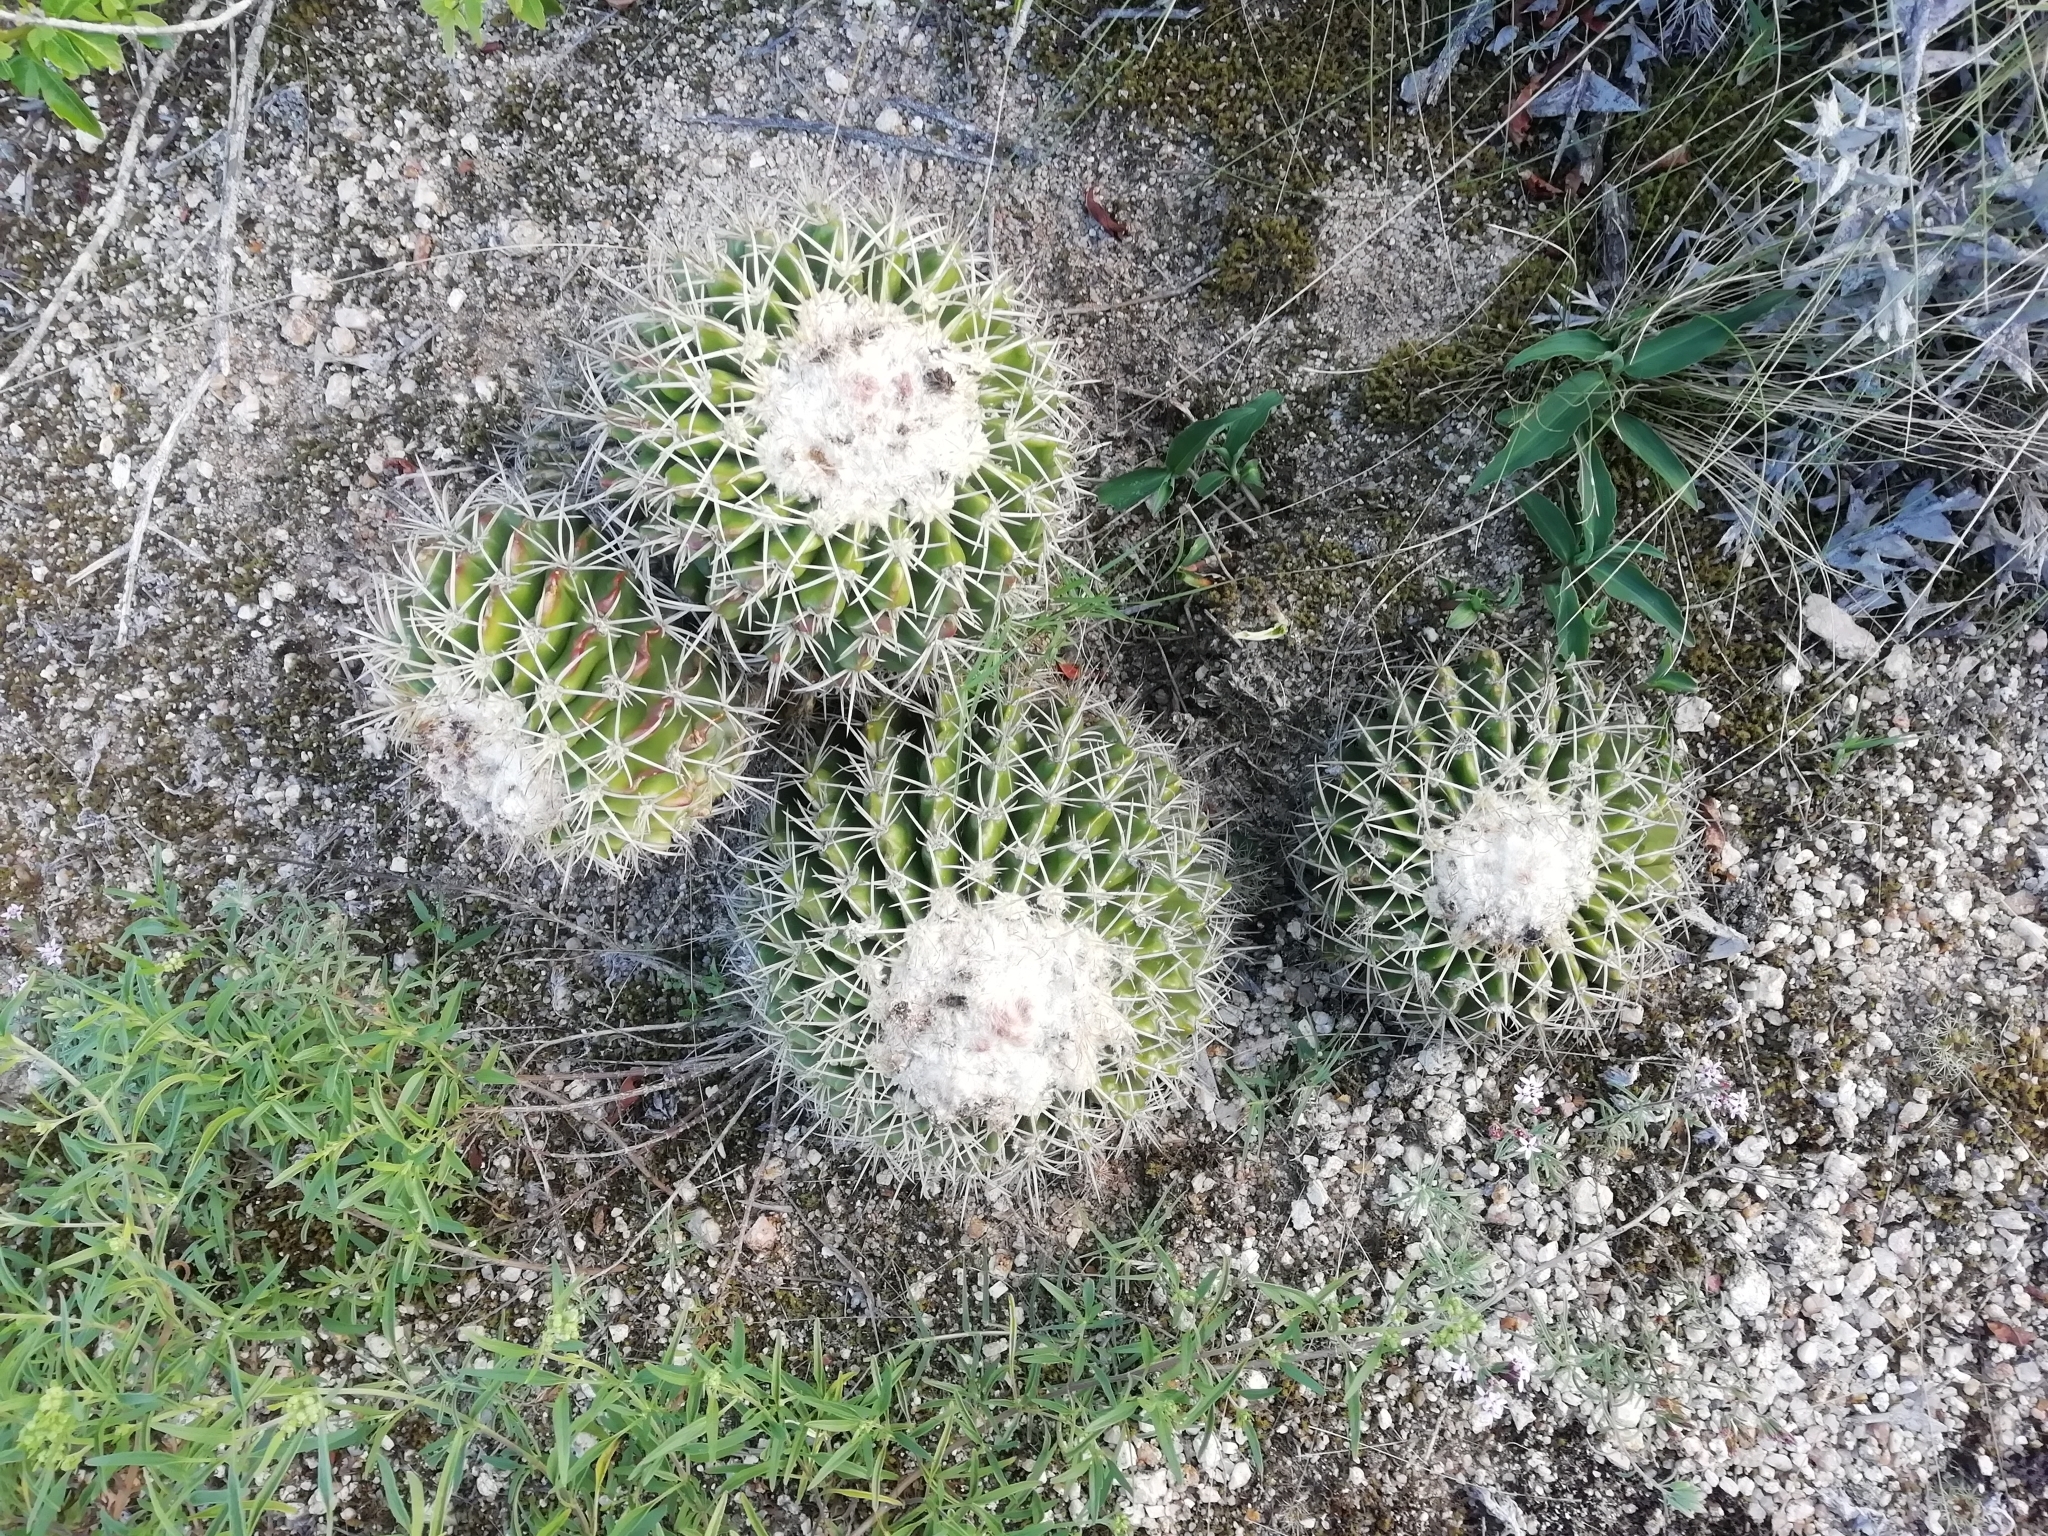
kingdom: Plantae
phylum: Tracheophyta
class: Magnoliopsida
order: Caryophyllales
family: Cactaceae
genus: Parodia
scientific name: Parodia erinacea
